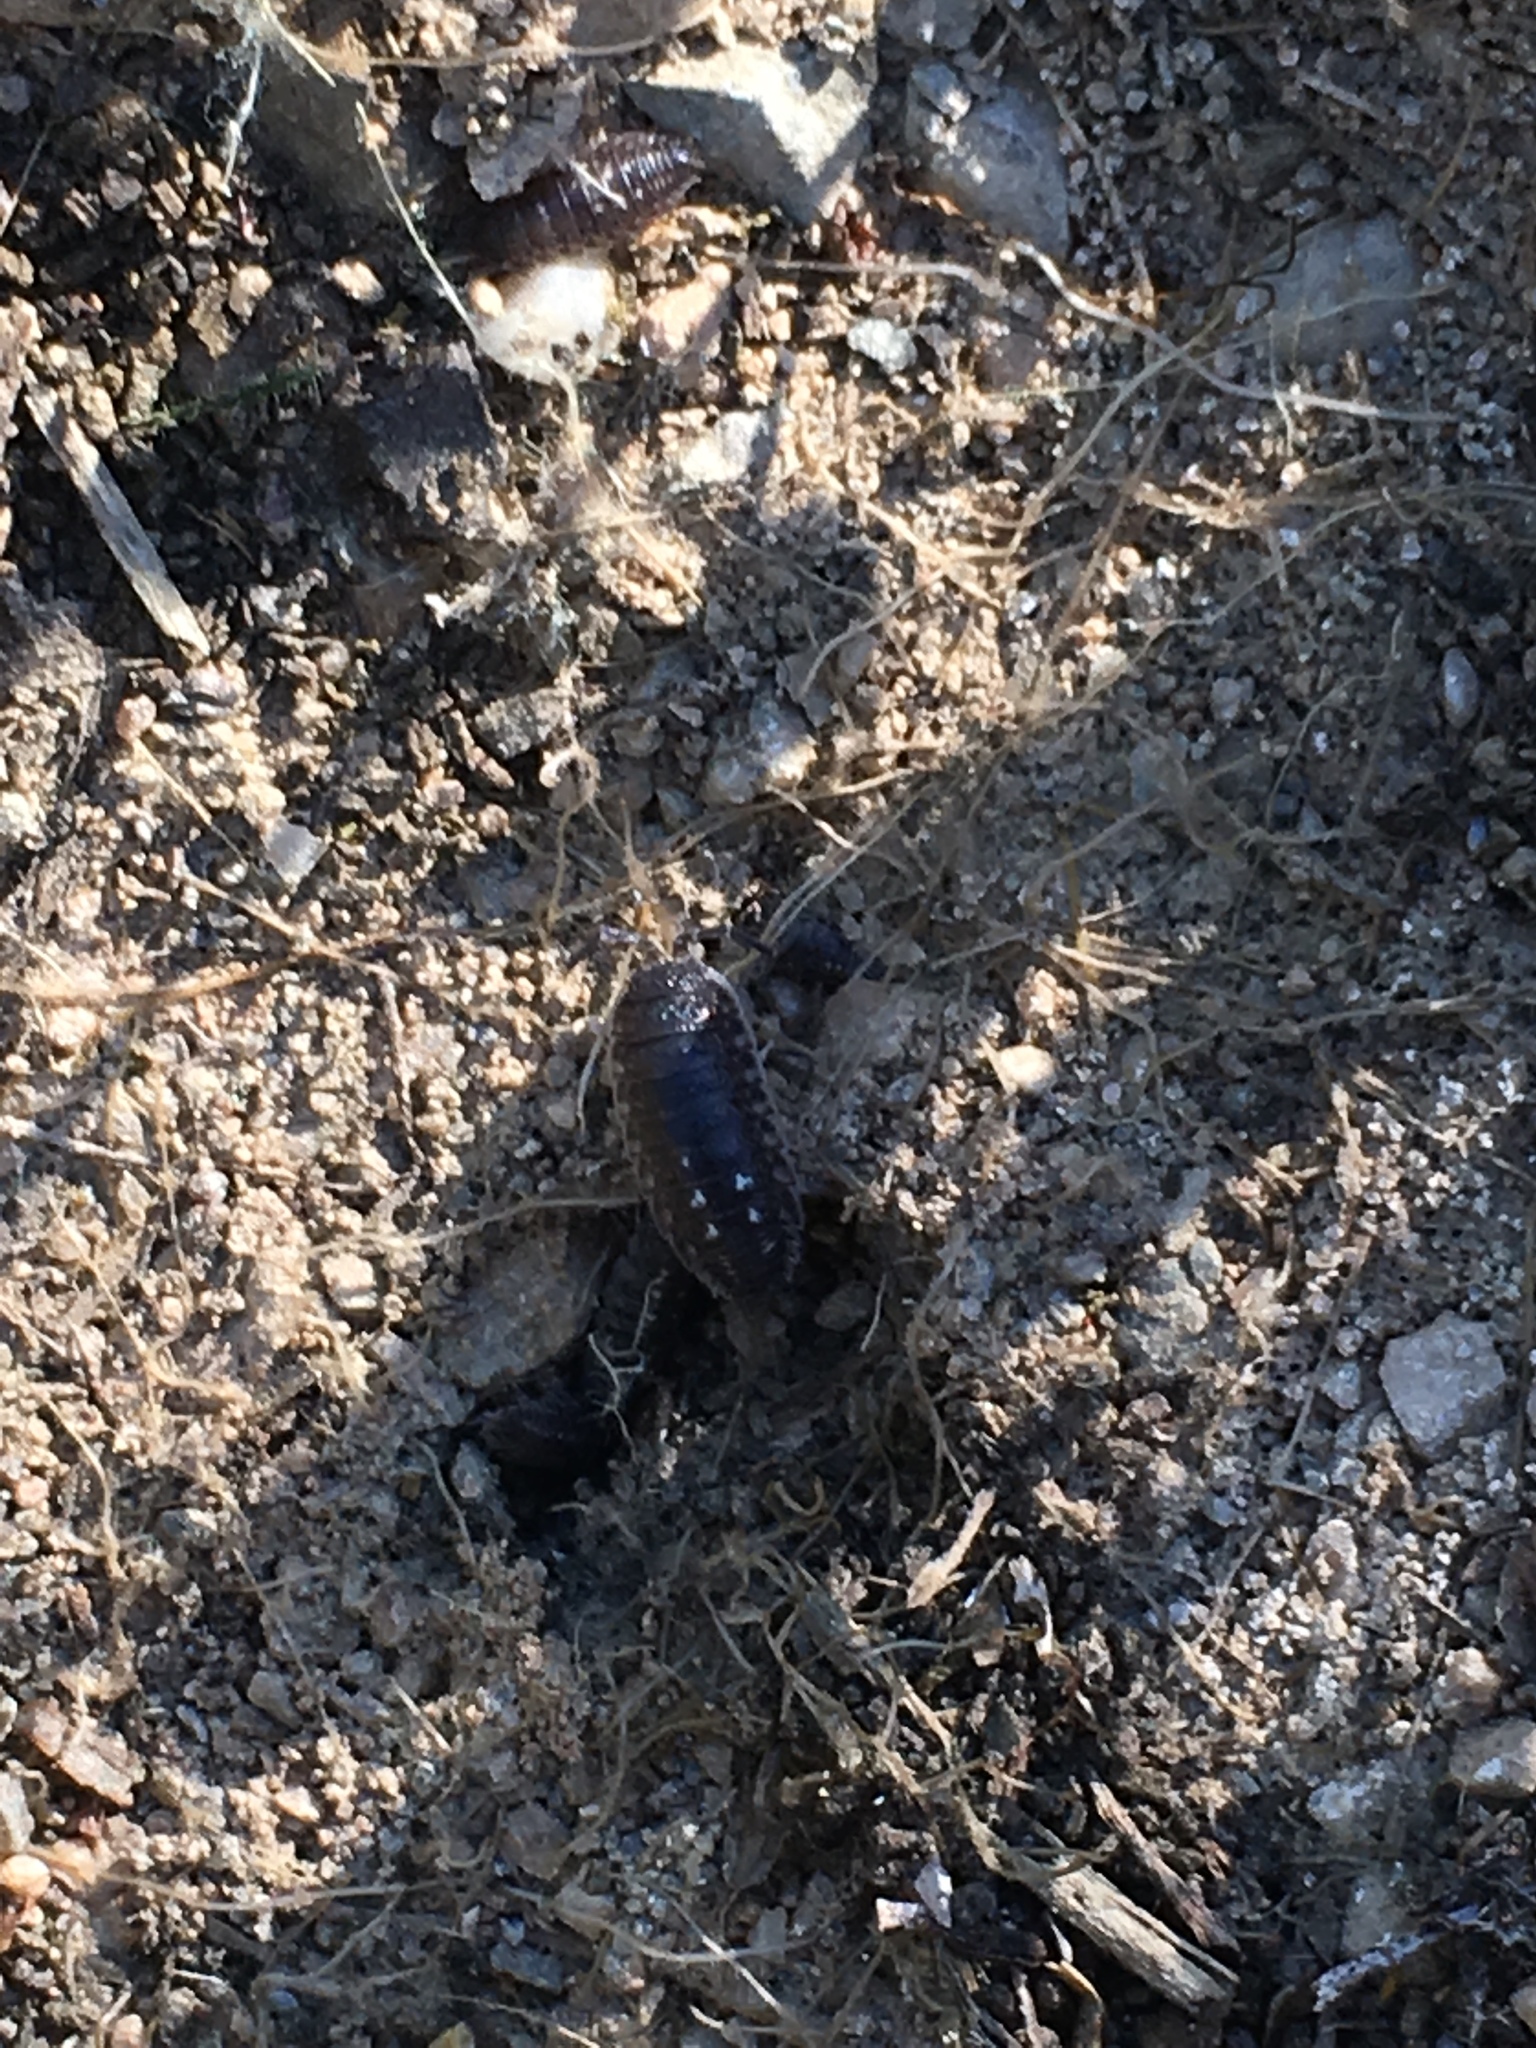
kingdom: Animalia
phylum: Arthropoda
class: Malacostraca
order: Isopoda
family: Porcellionidae
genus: Porcellio
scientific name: Porcellio ornatus
